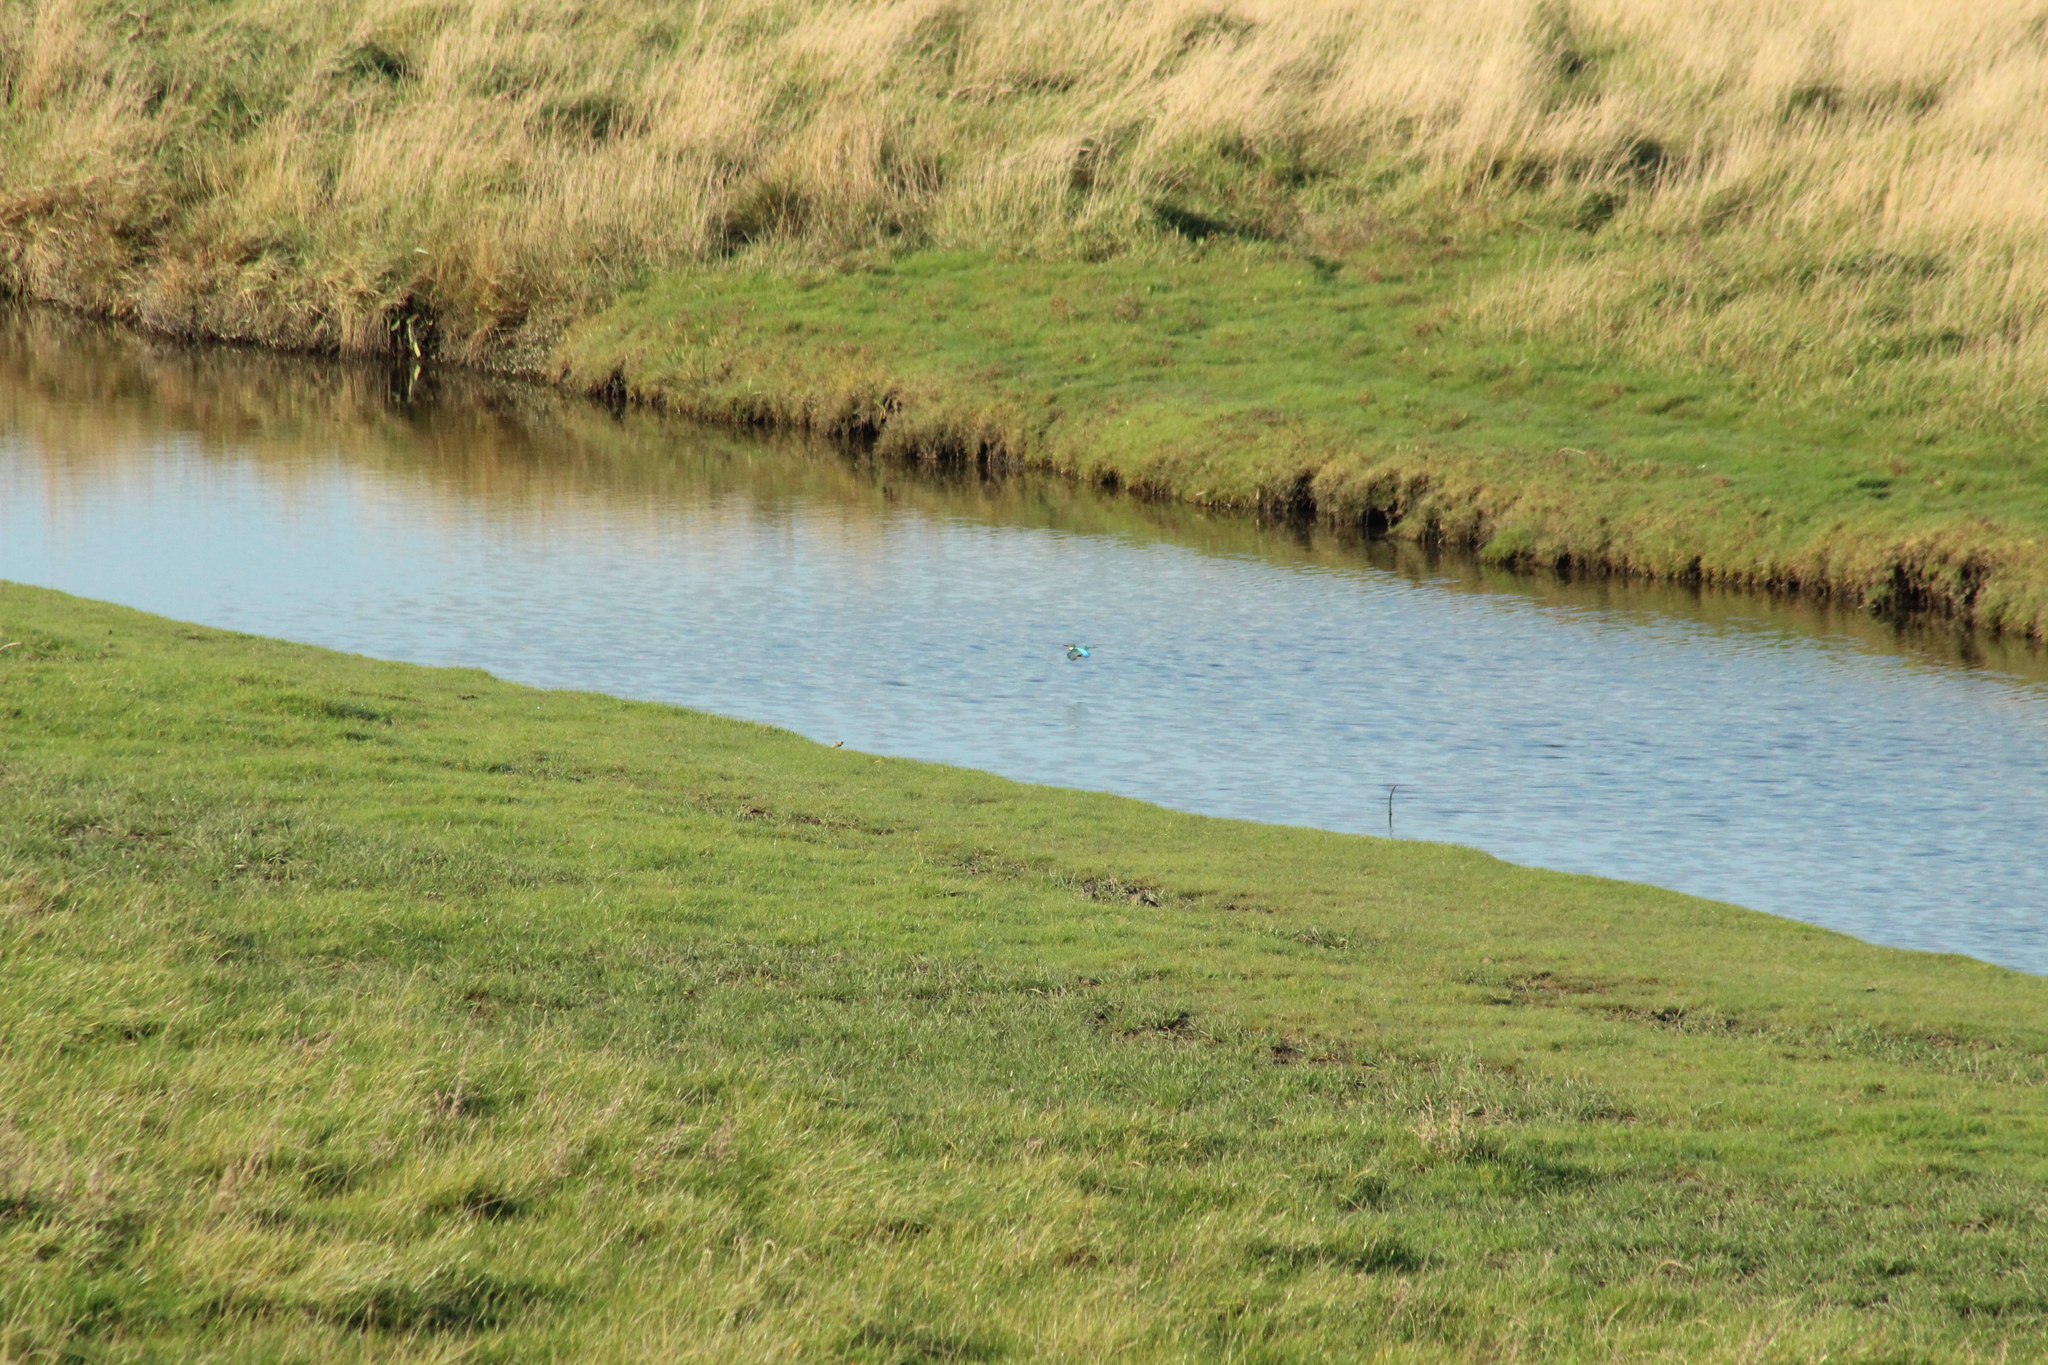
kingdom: Animalia
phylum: Chordata
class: Aves
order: Coraciiformes
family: Alcedinidae
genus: Alcedo
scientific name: Alcedo atthis
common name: Common kingfisher
